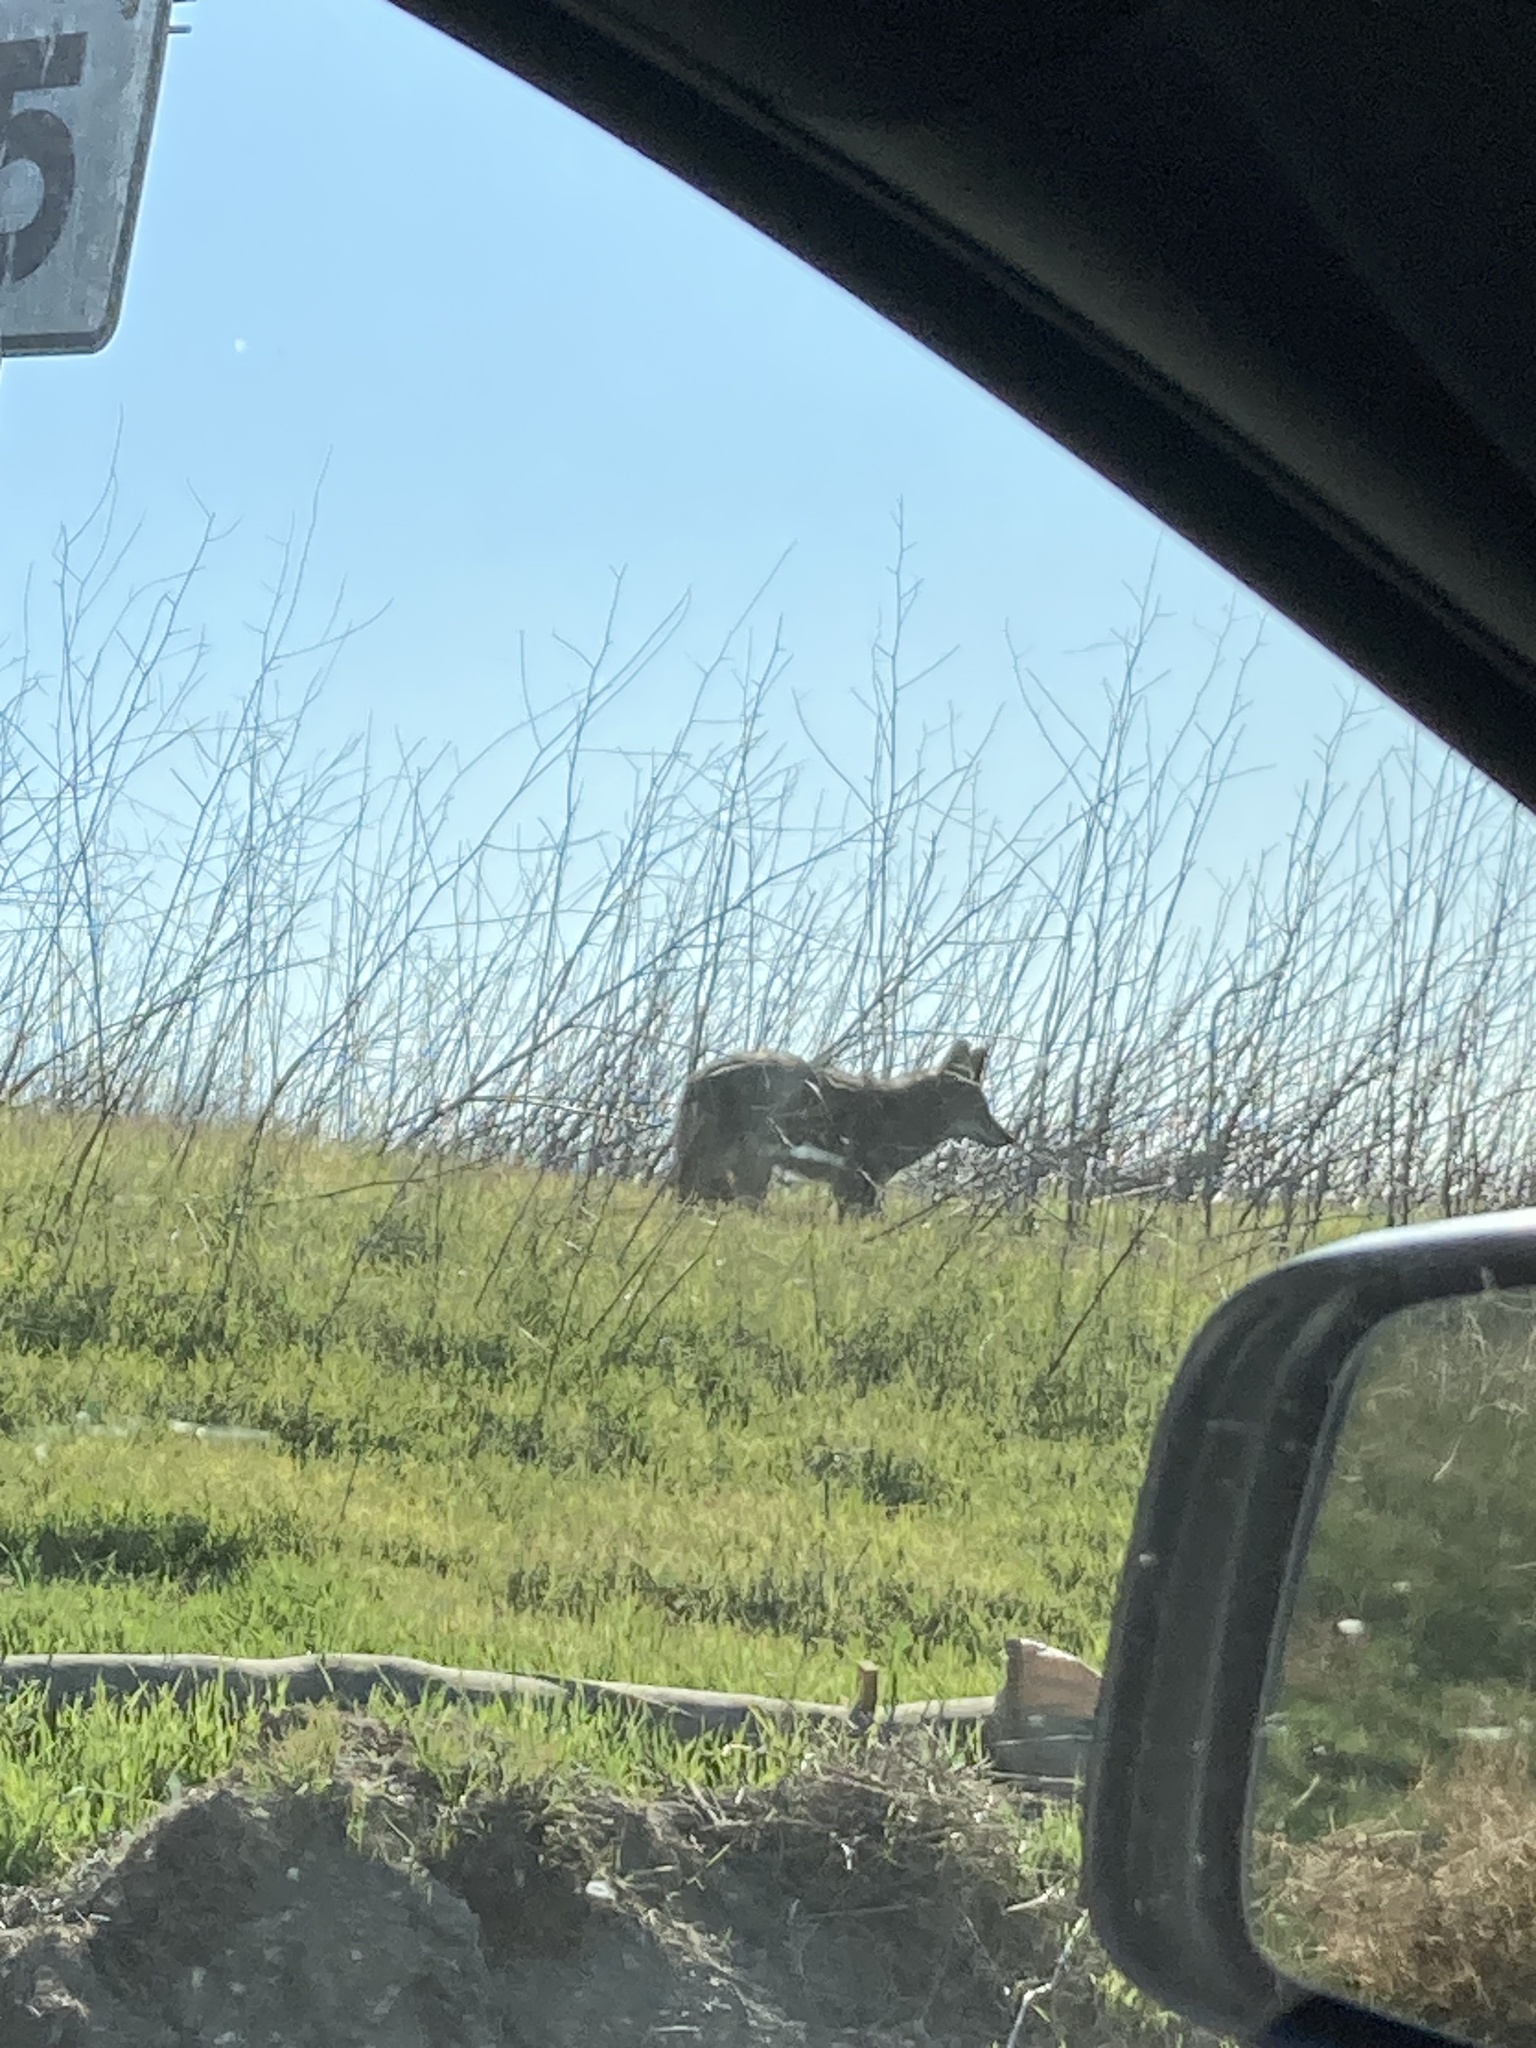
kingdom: Animalia
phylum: Chordata
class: Mammalia
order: Carnivora
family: Canidae
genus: Canis
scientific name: Canis latrans
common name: Coyote
